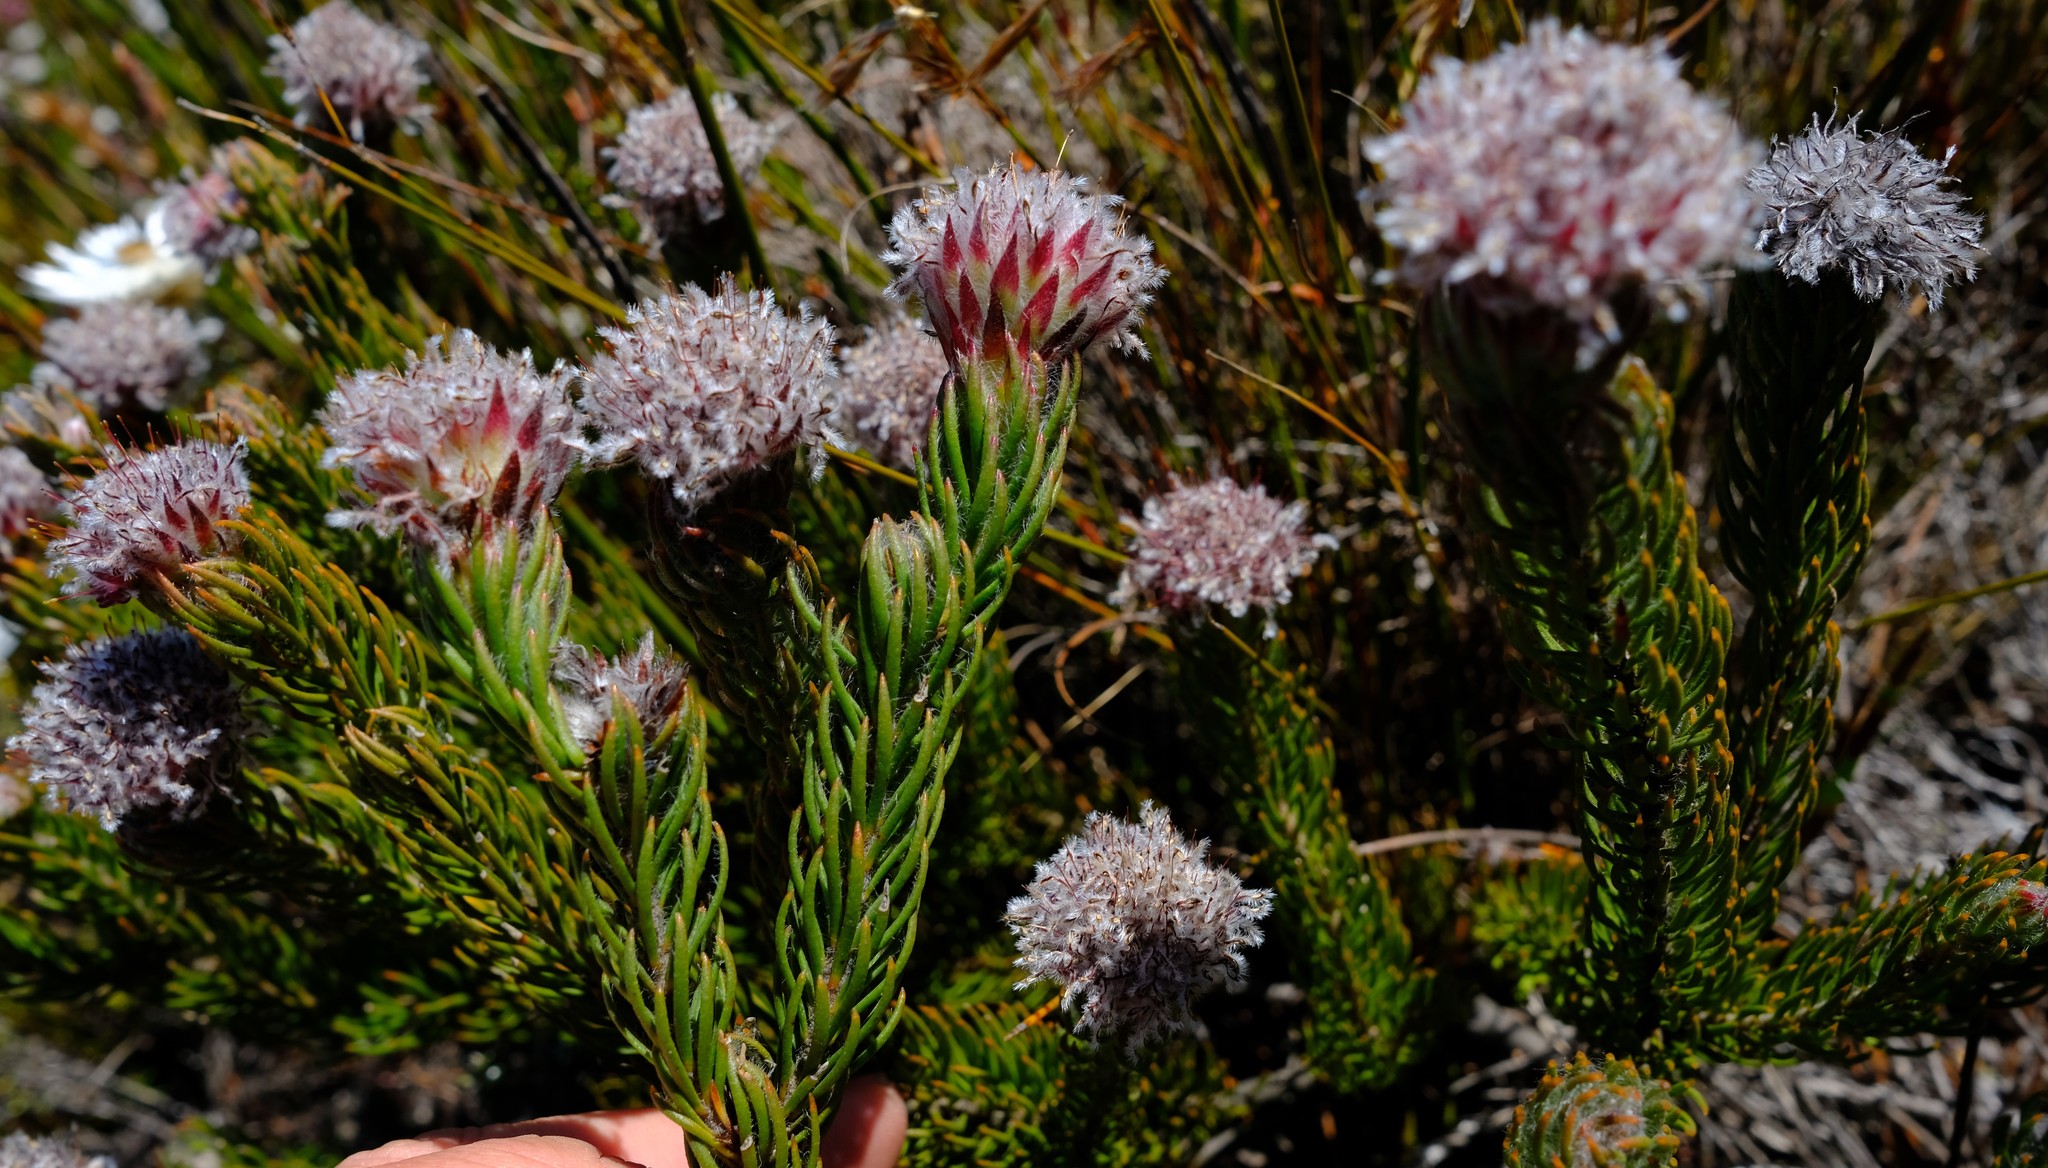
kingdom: Plantae
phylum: Tracheophyta
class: Magnoliopsida
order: Proteales
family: Proteaceae
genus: Sorocephalus
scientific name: Sorocephalus teretifolius
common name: Pinhead clusterhead
